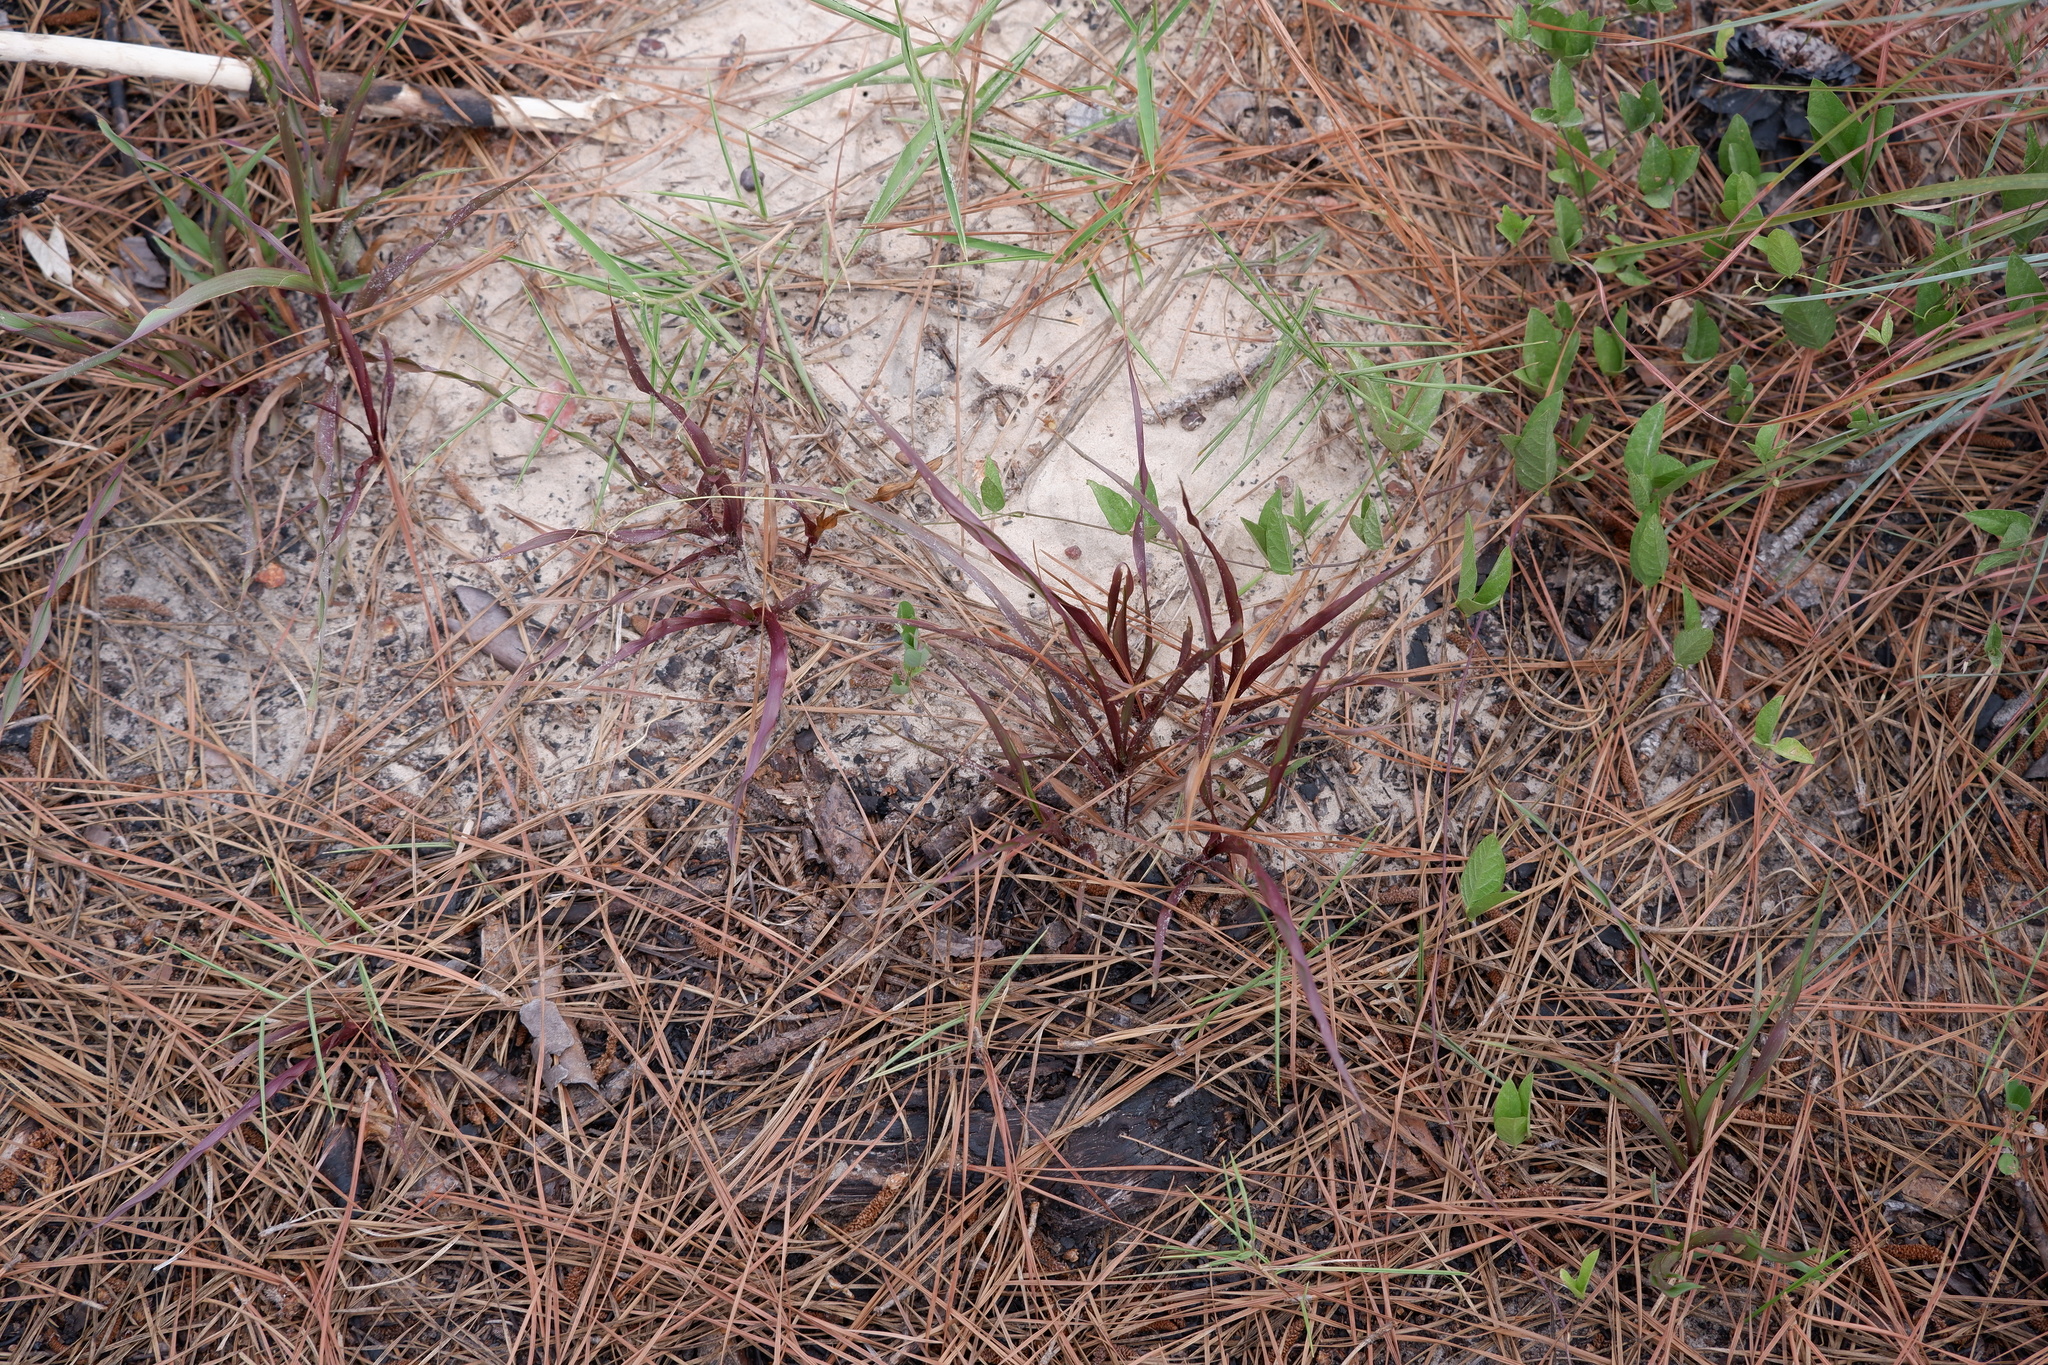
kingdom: Plantae
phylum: Tracheophyta
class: Liliopsida
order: Poales
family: Poaceae
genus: Paspalum
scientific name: Paspalum setaceum
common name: Slender paspalum
